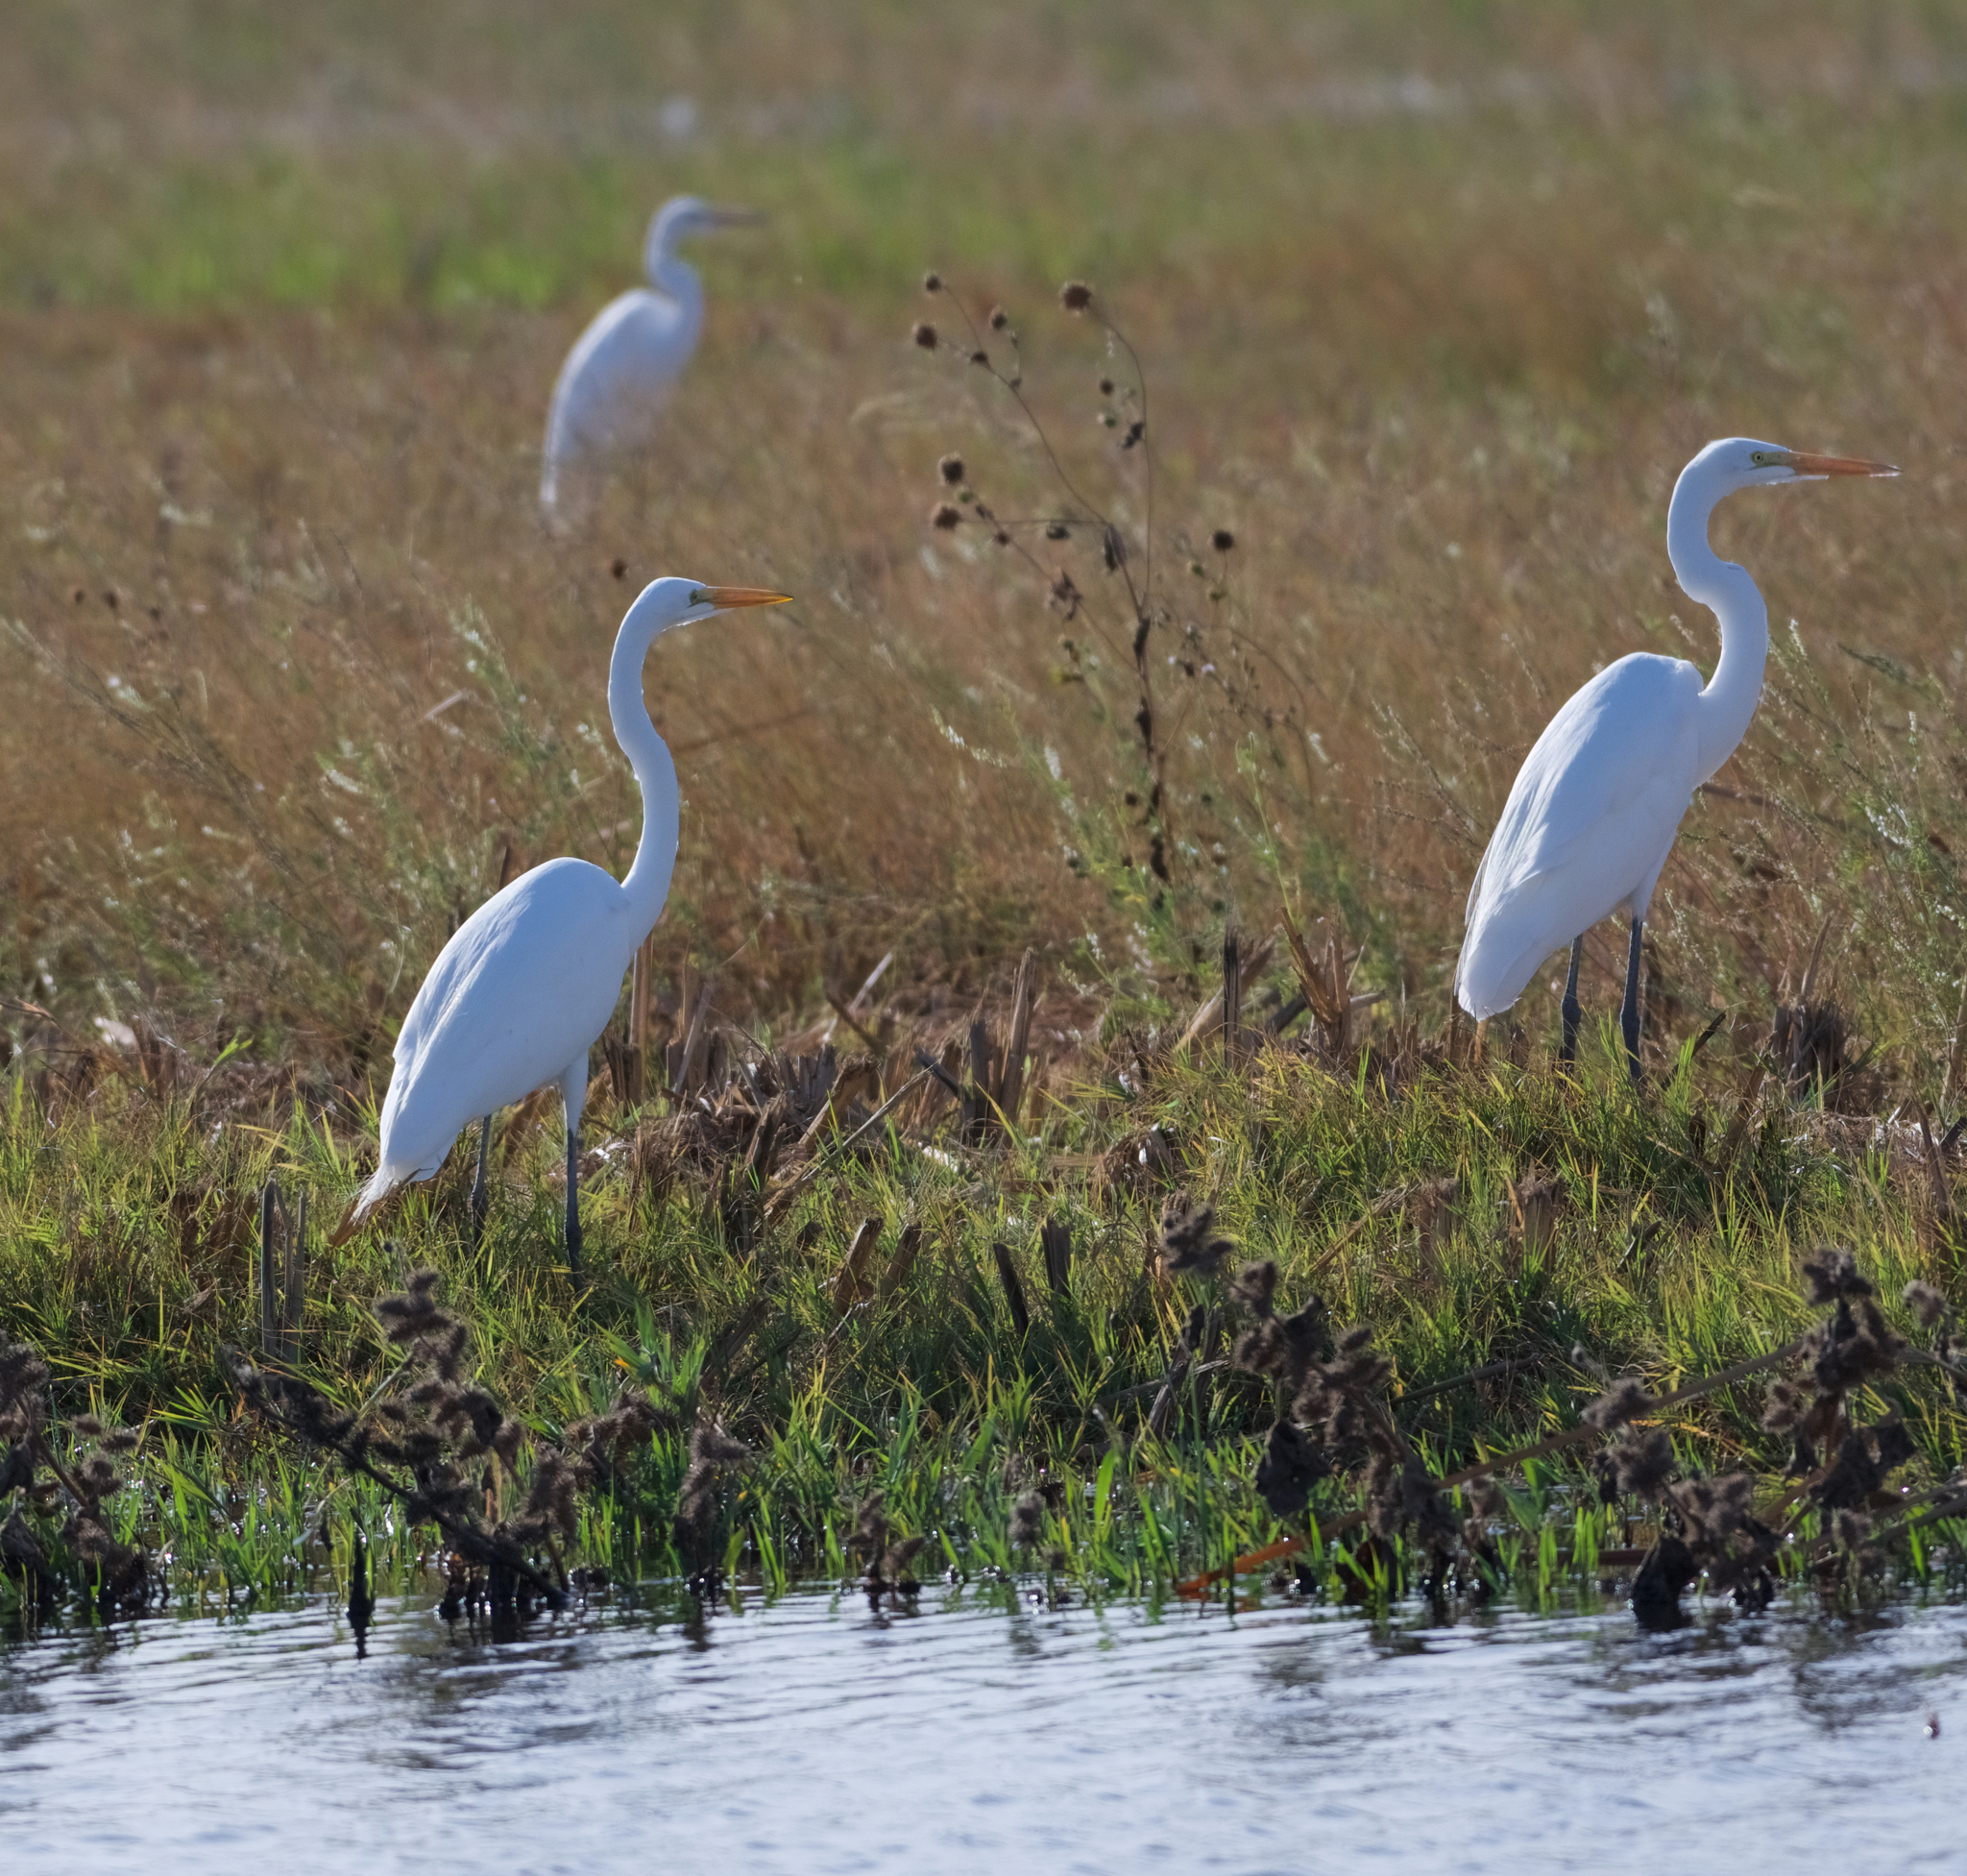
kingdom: Animalia
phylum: Chordata
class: Aves
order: Pelecaniformes
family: Ardeidae
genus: Ardea
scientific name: Ardea alba
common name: Great egret
